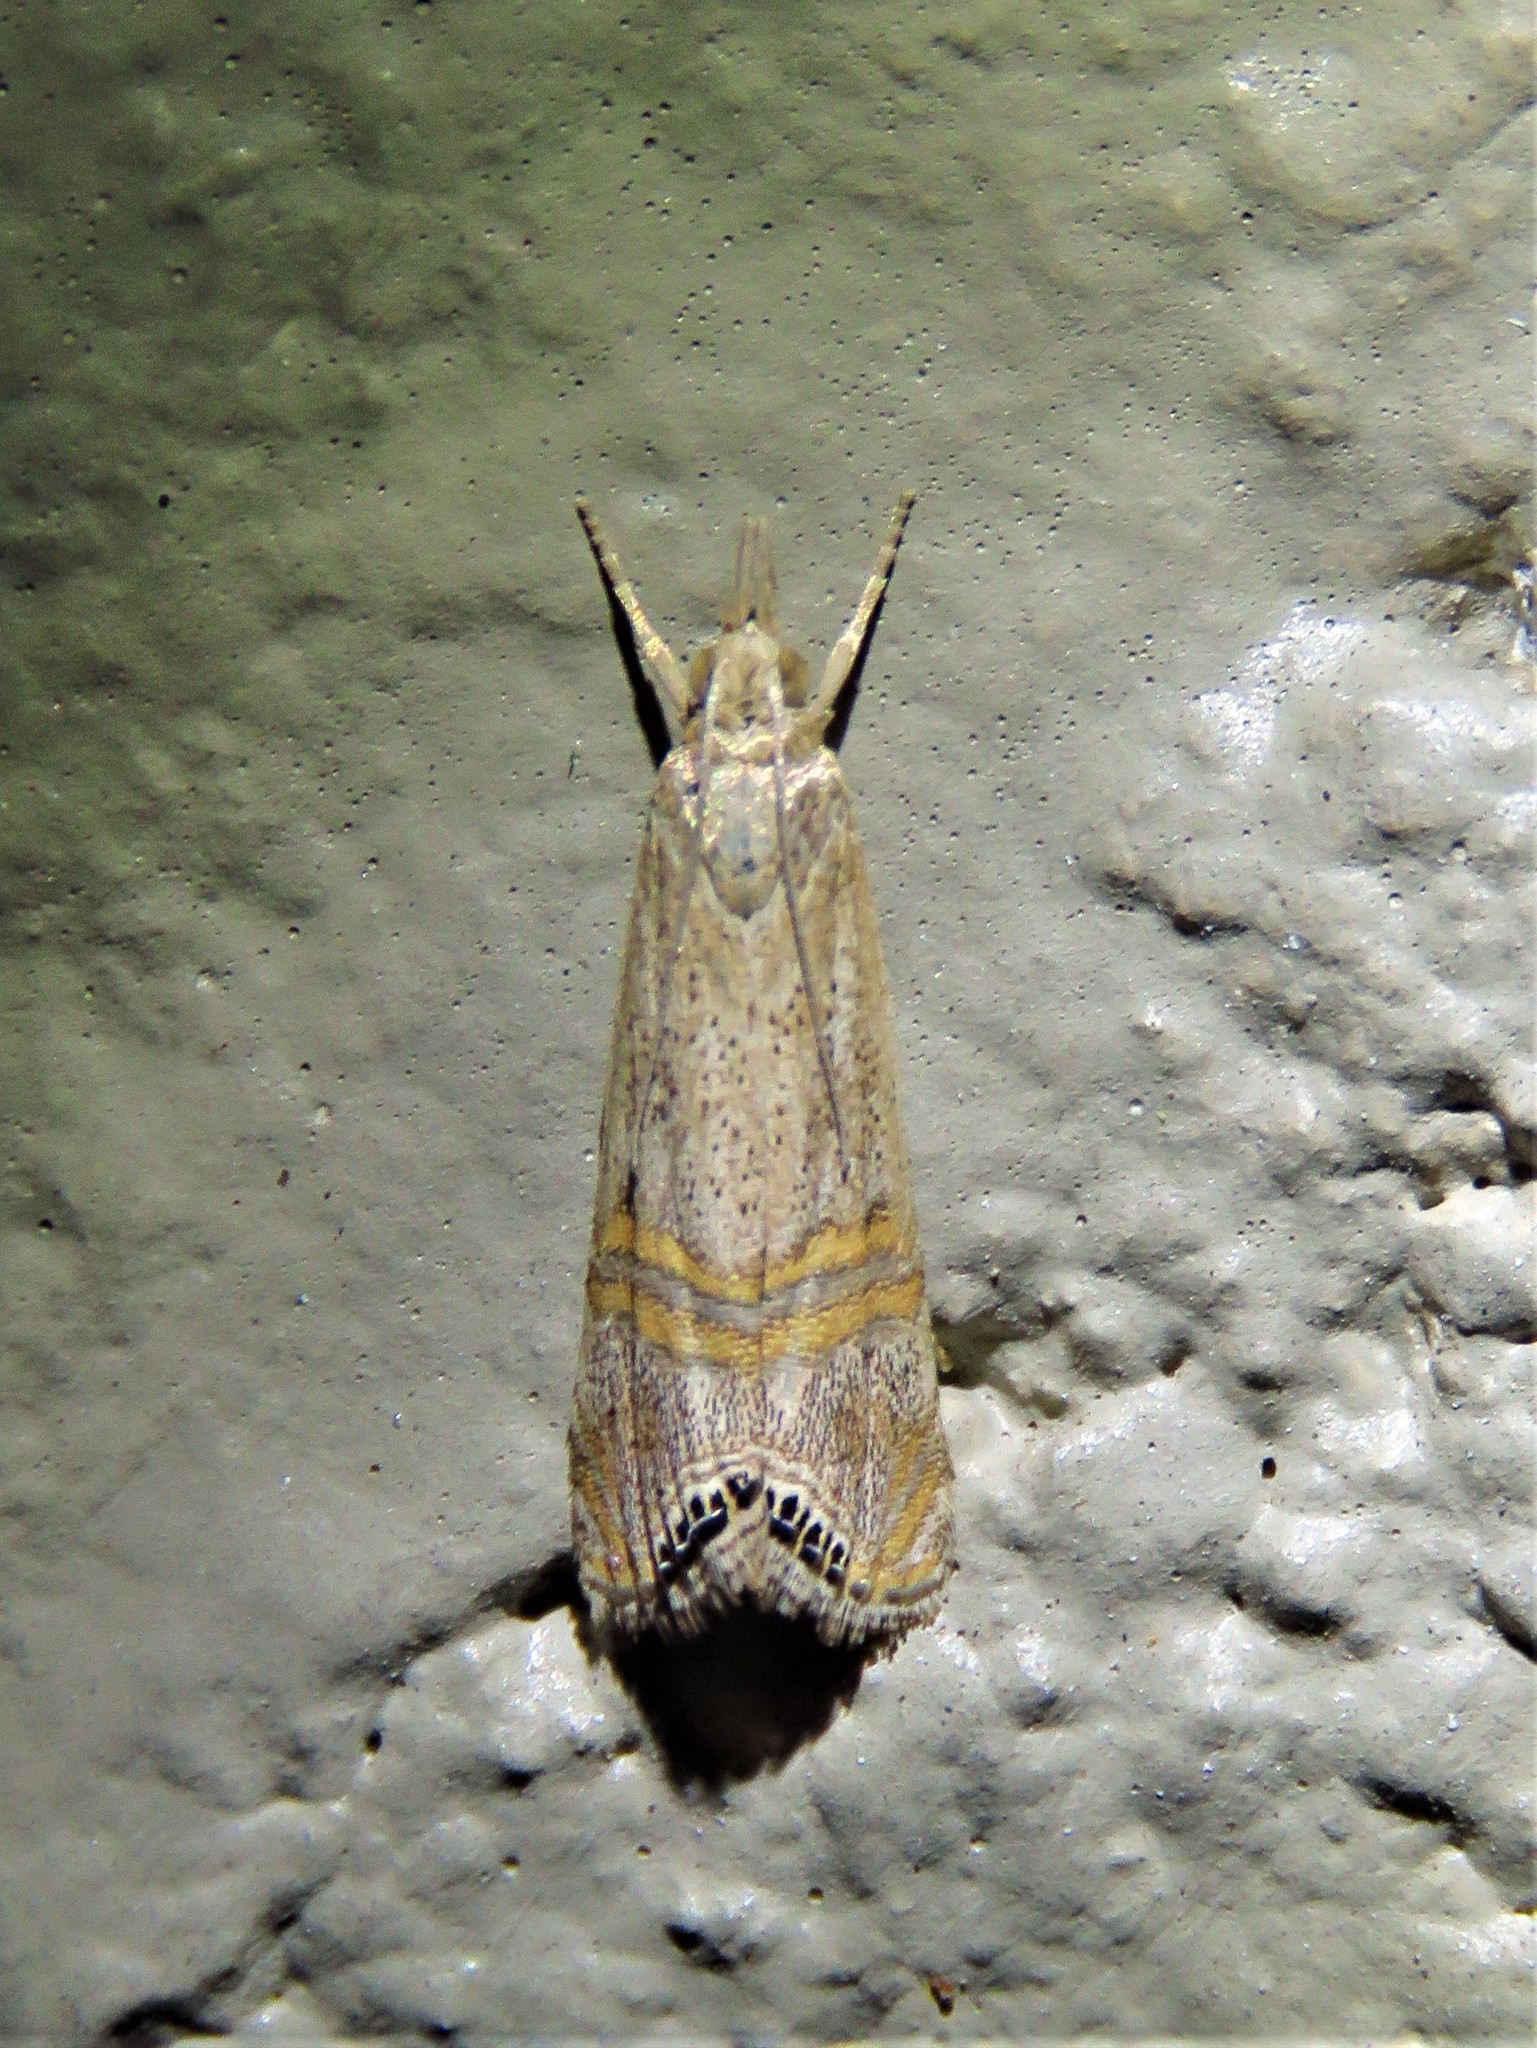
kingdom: Animalia
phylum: Arthropoda
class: Insecta
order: Lepidoptera
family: Crambidae
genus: Euchromius
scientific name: Euchromius ocellea
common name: Necklace veneer moth
